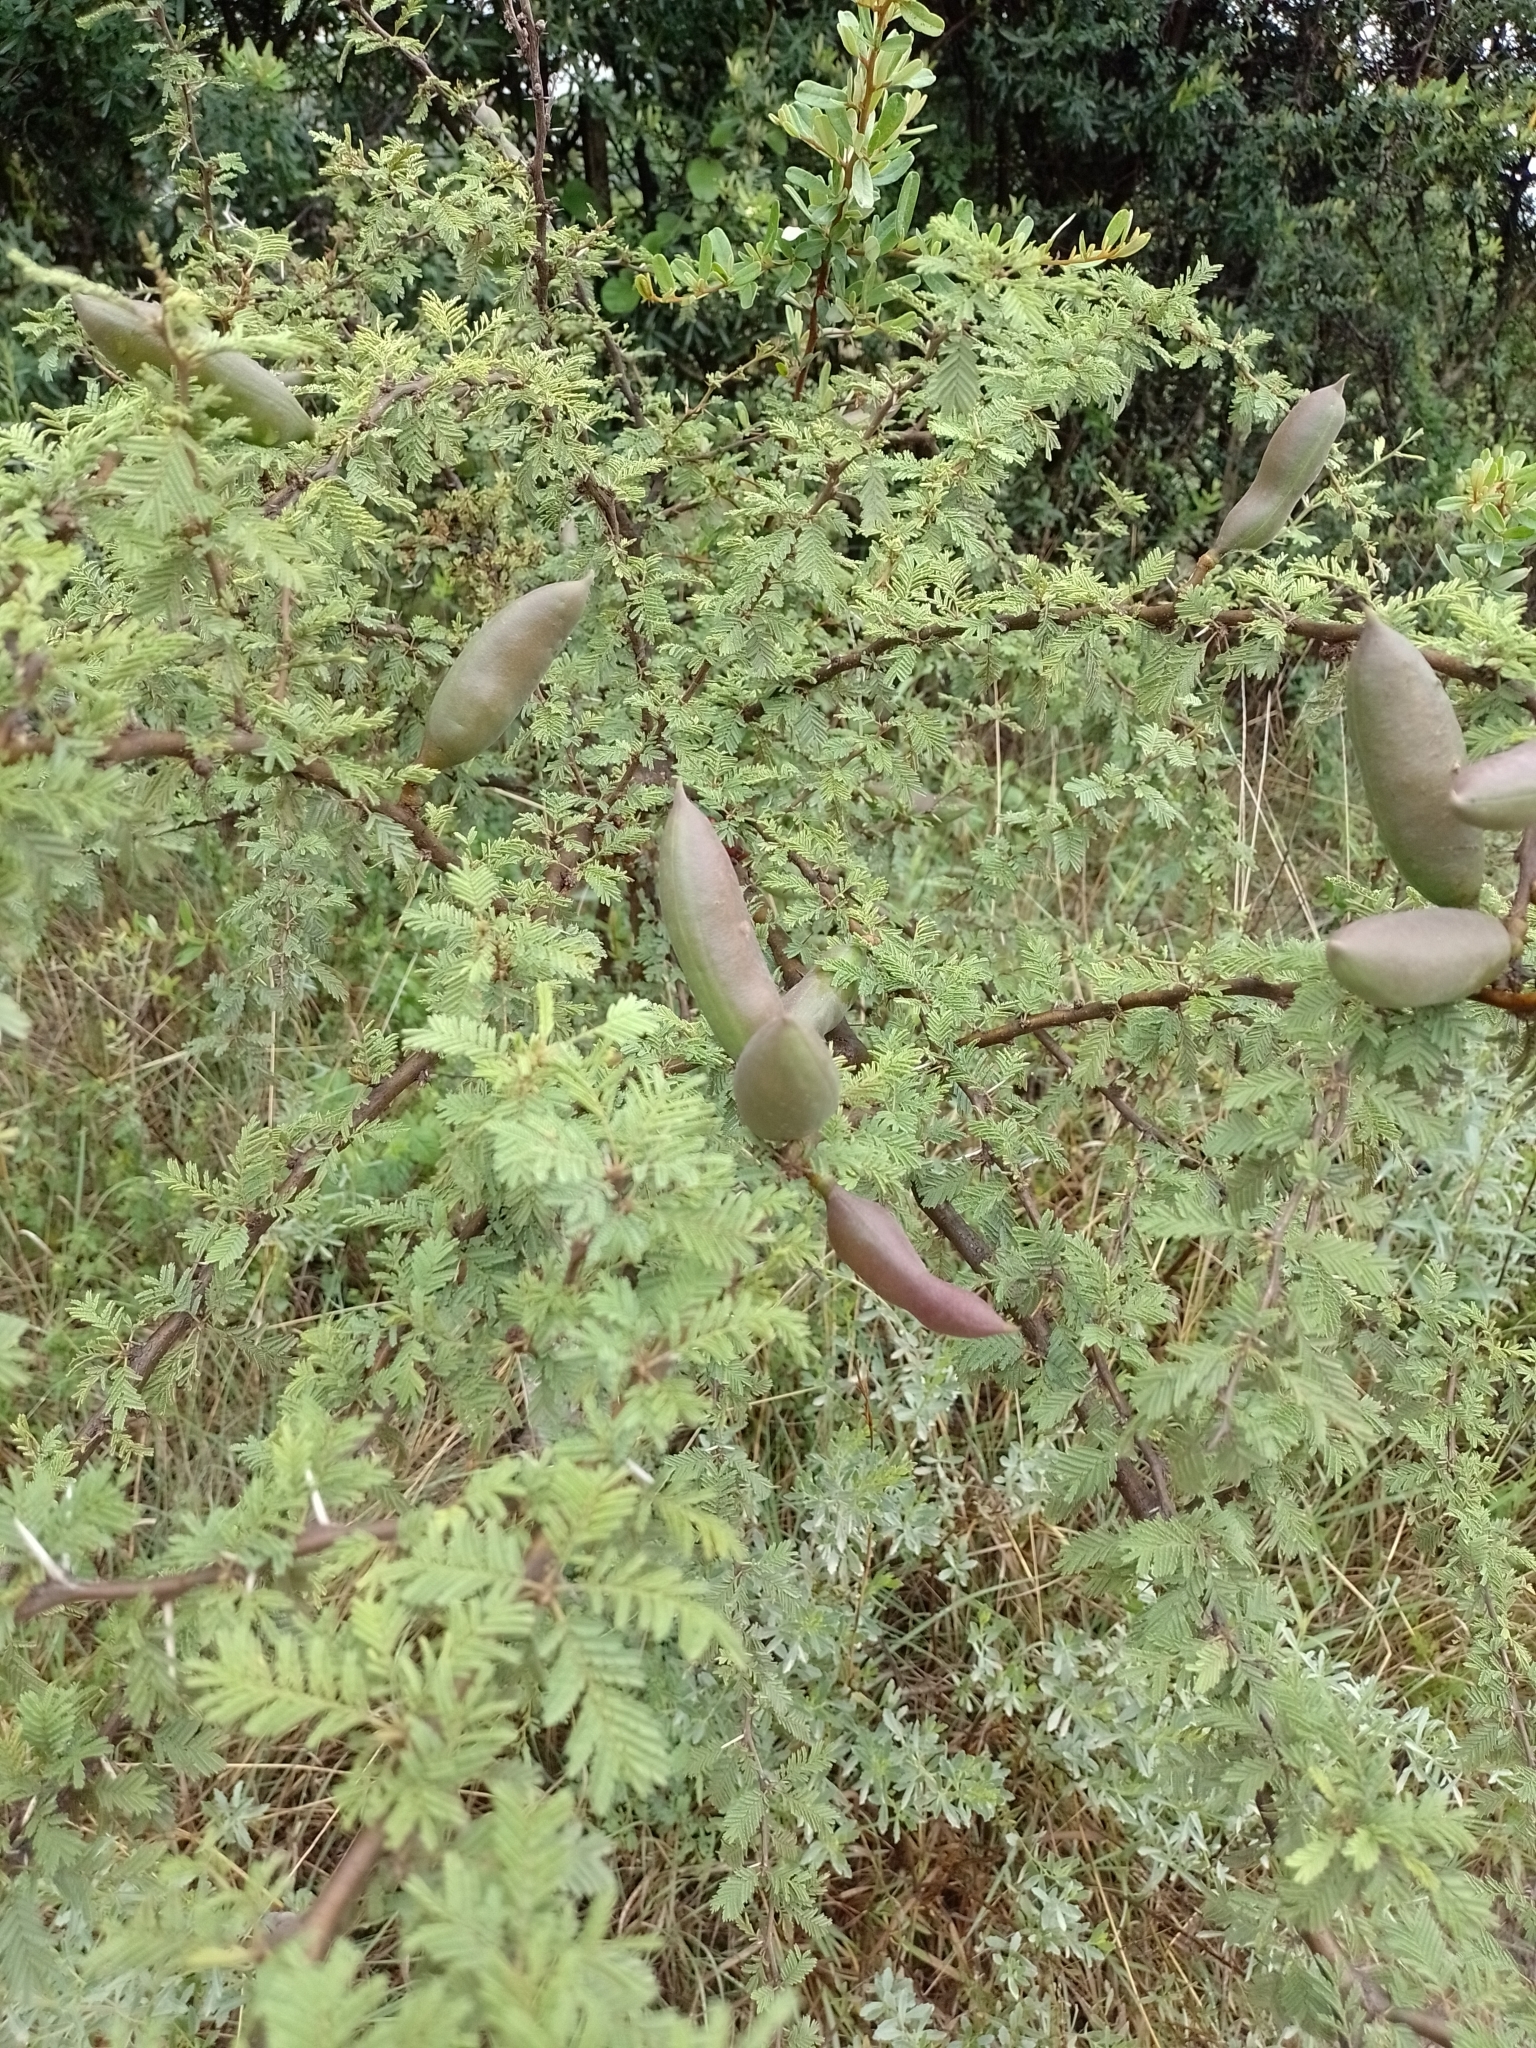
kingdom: Plantae
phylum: Tracheophyta
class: Magnoliopsida
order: Fabales
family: Fabaceae
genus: Vachellia
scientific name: Vachellia caven
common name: Roman cassie
